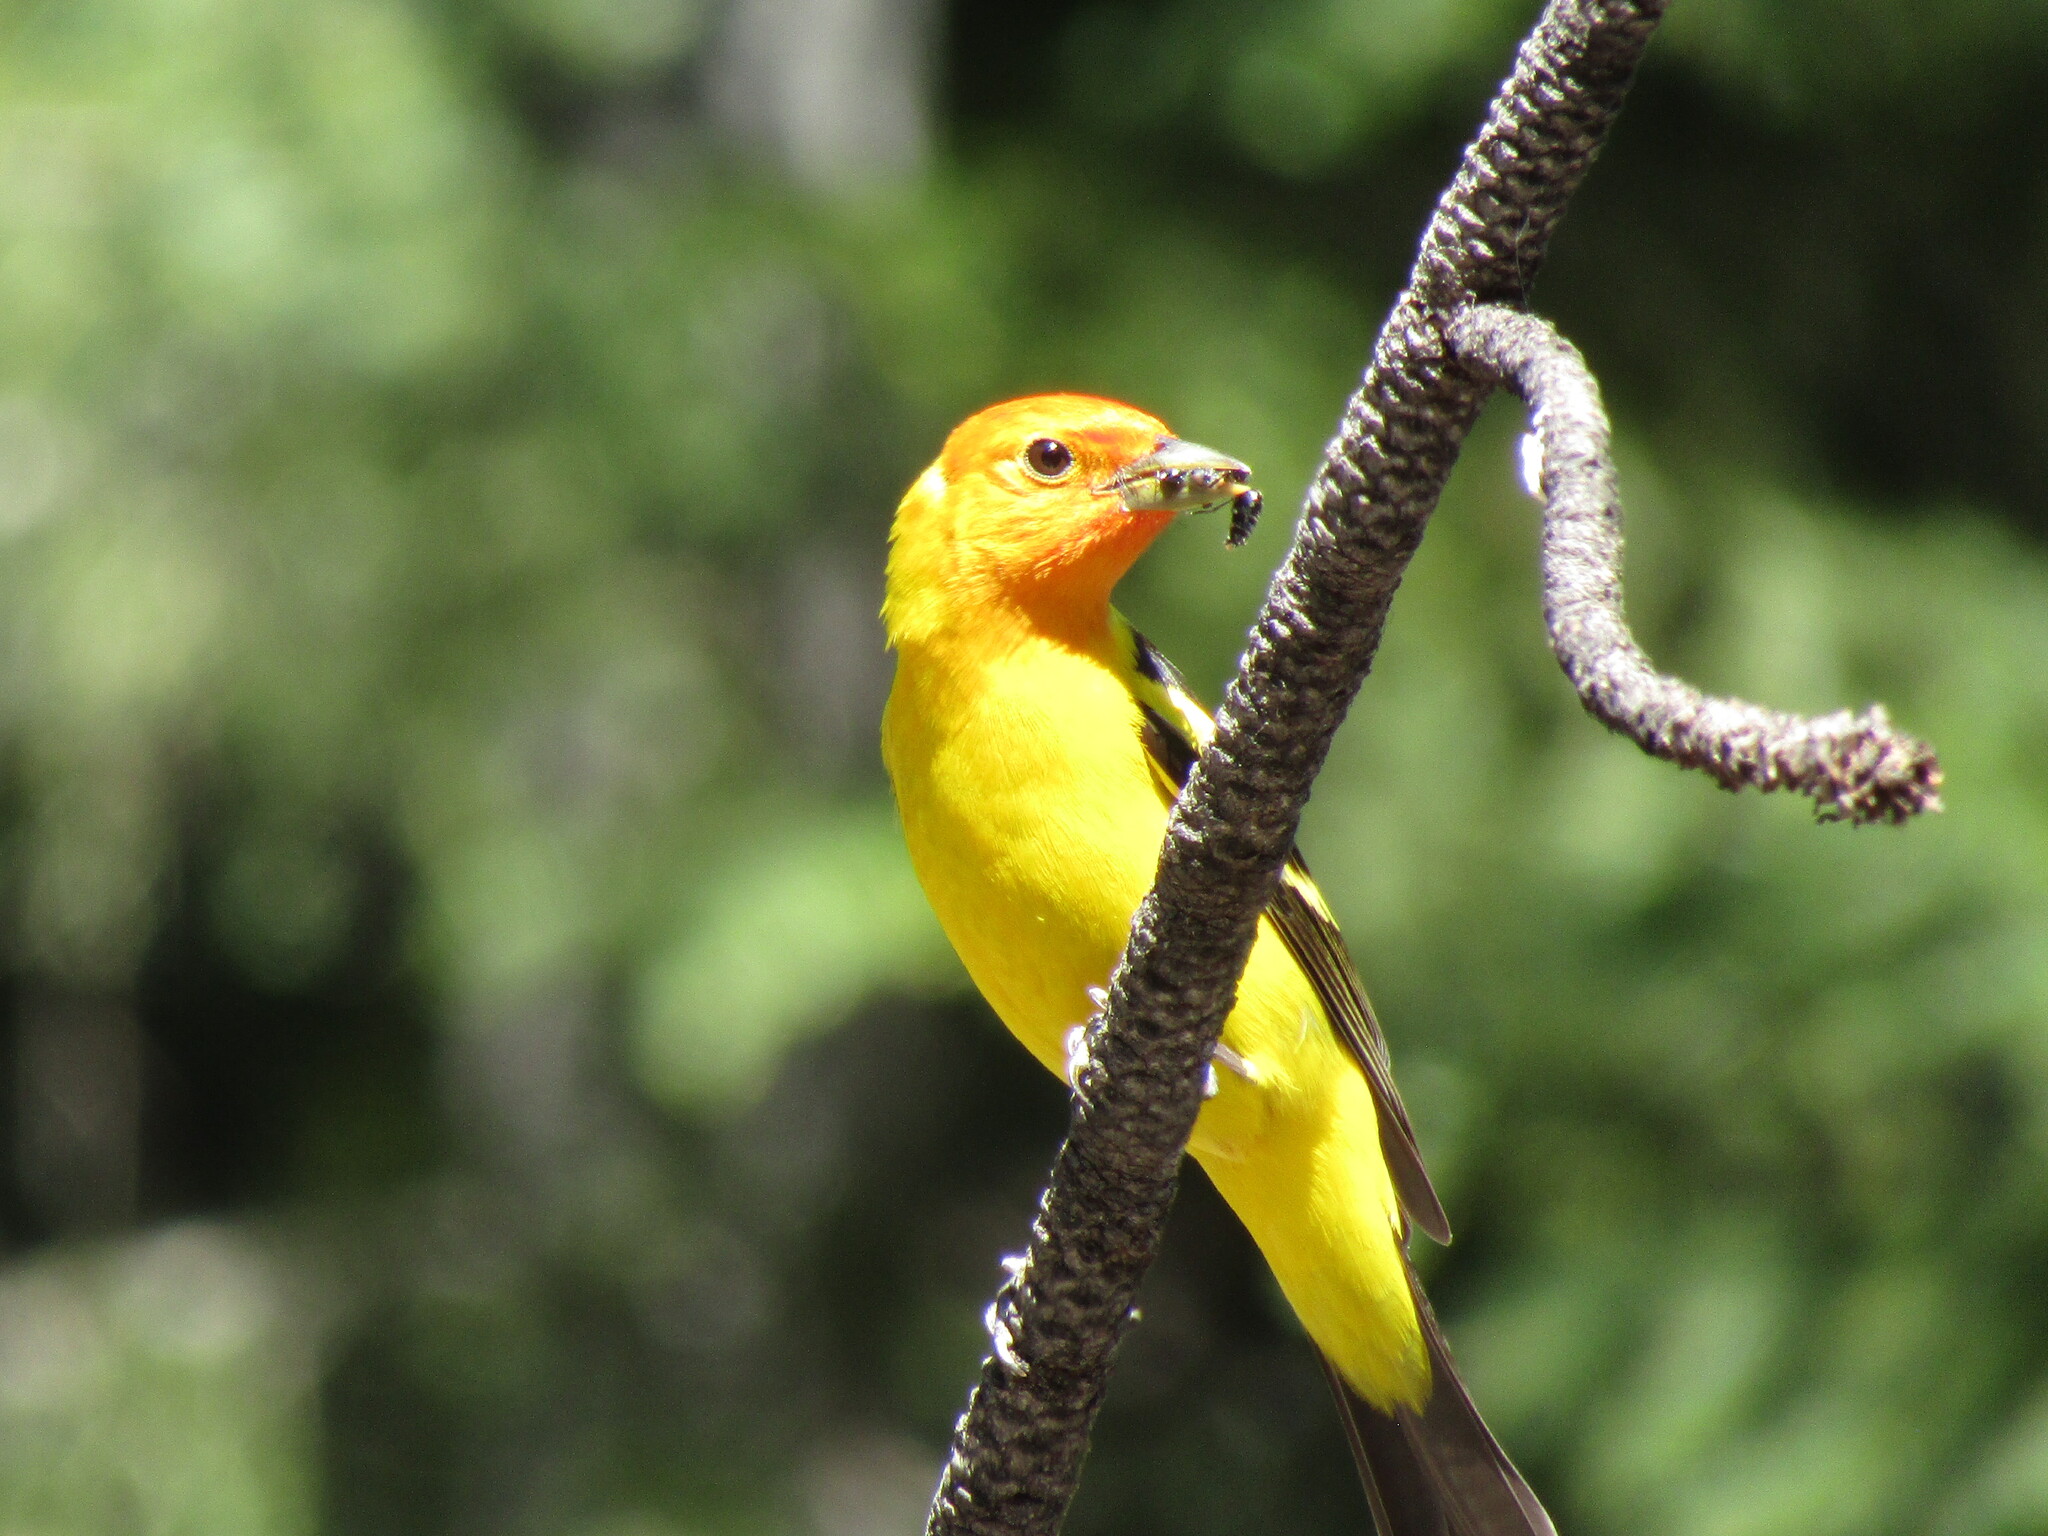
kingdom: Animalia
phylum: Chordata
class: Aves
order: Passeriformes
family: Cardinalidae
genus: Piranga
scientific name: Piranga ludoviciana
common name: Western tanager
